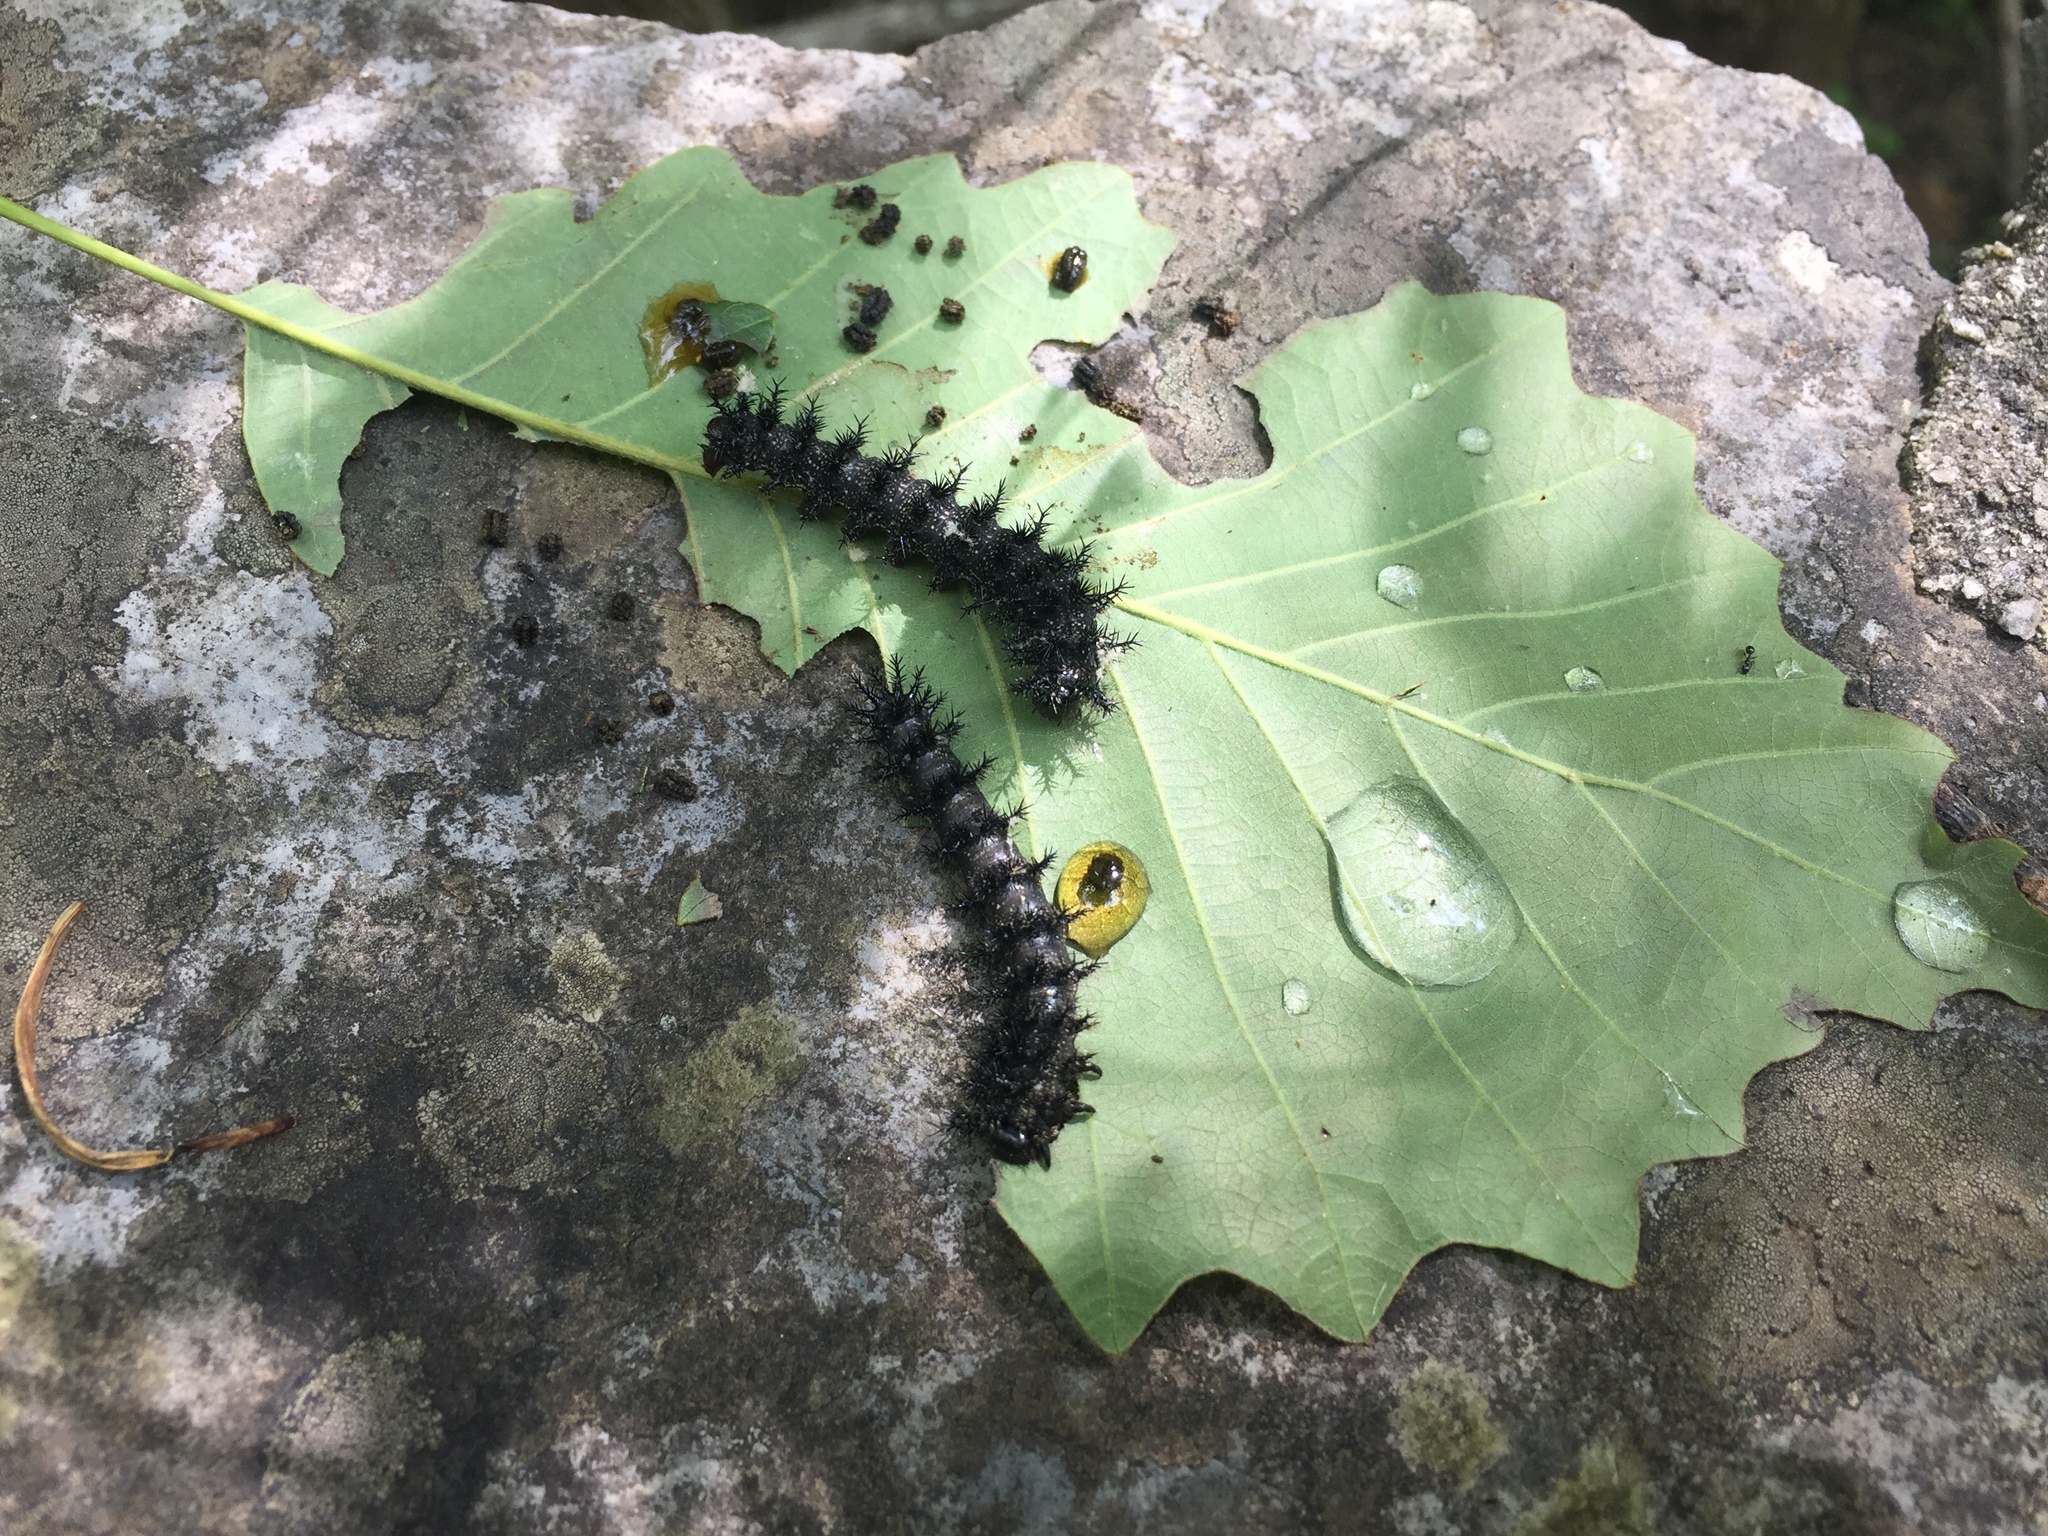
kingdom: Animalia
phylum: Arthropoda
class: Insecta
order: Lepidoptera
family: Saturniidae
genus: Hemileuca
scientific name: Hemileuca maia
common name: Eastern buckmoth
